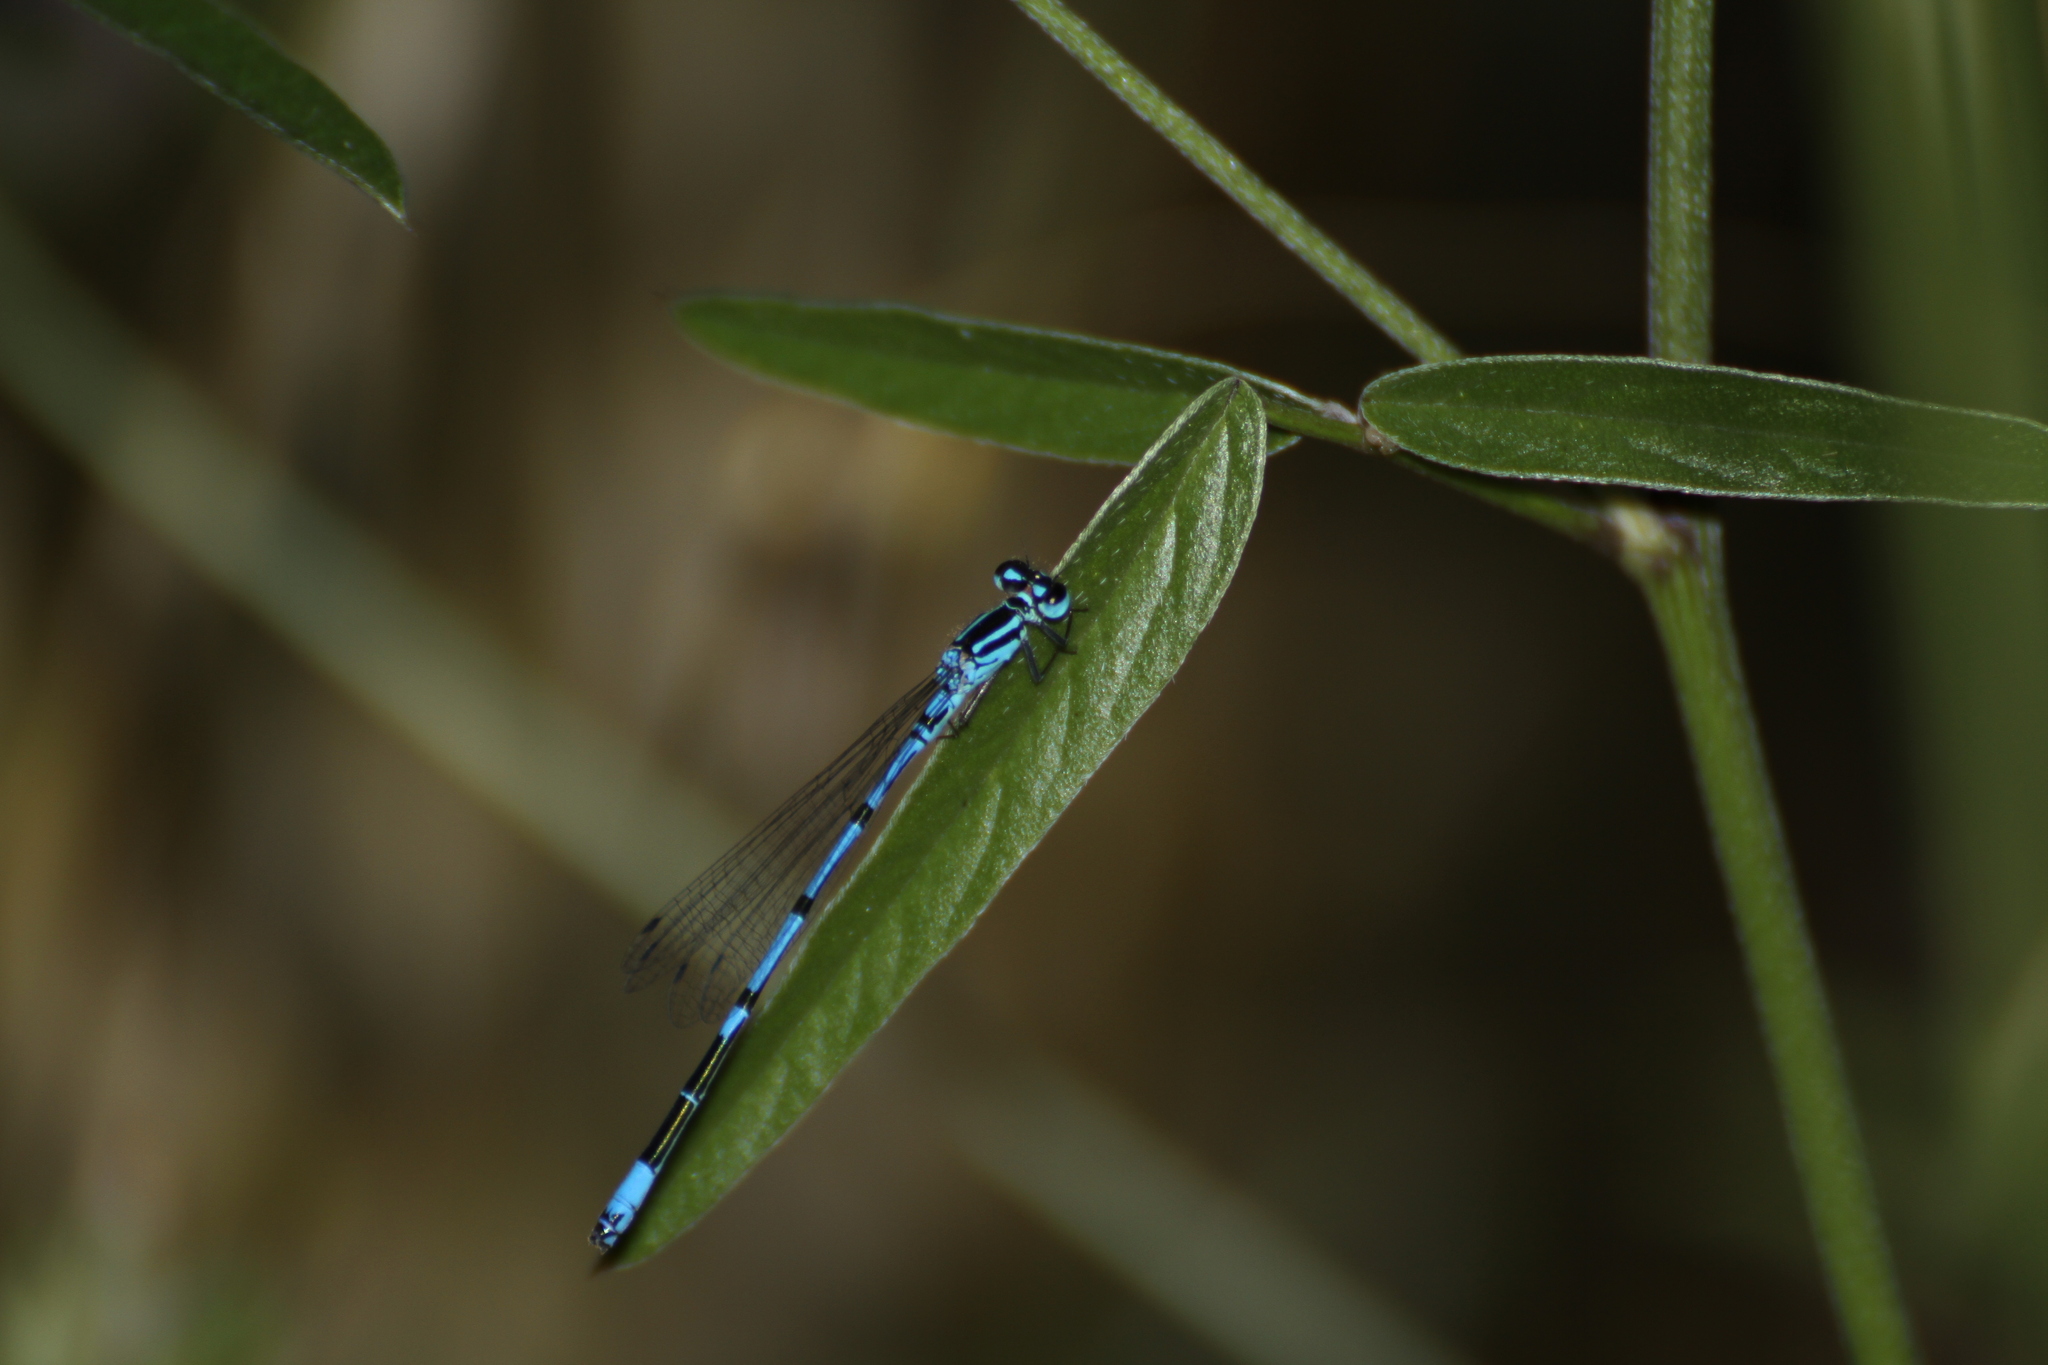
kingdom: Animalia
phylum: Arthropoda
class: Insecta
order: Odonata
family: Coenagrionidae
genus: Coenagrion
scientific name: Coenagrion puella
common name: Azure damselfly
